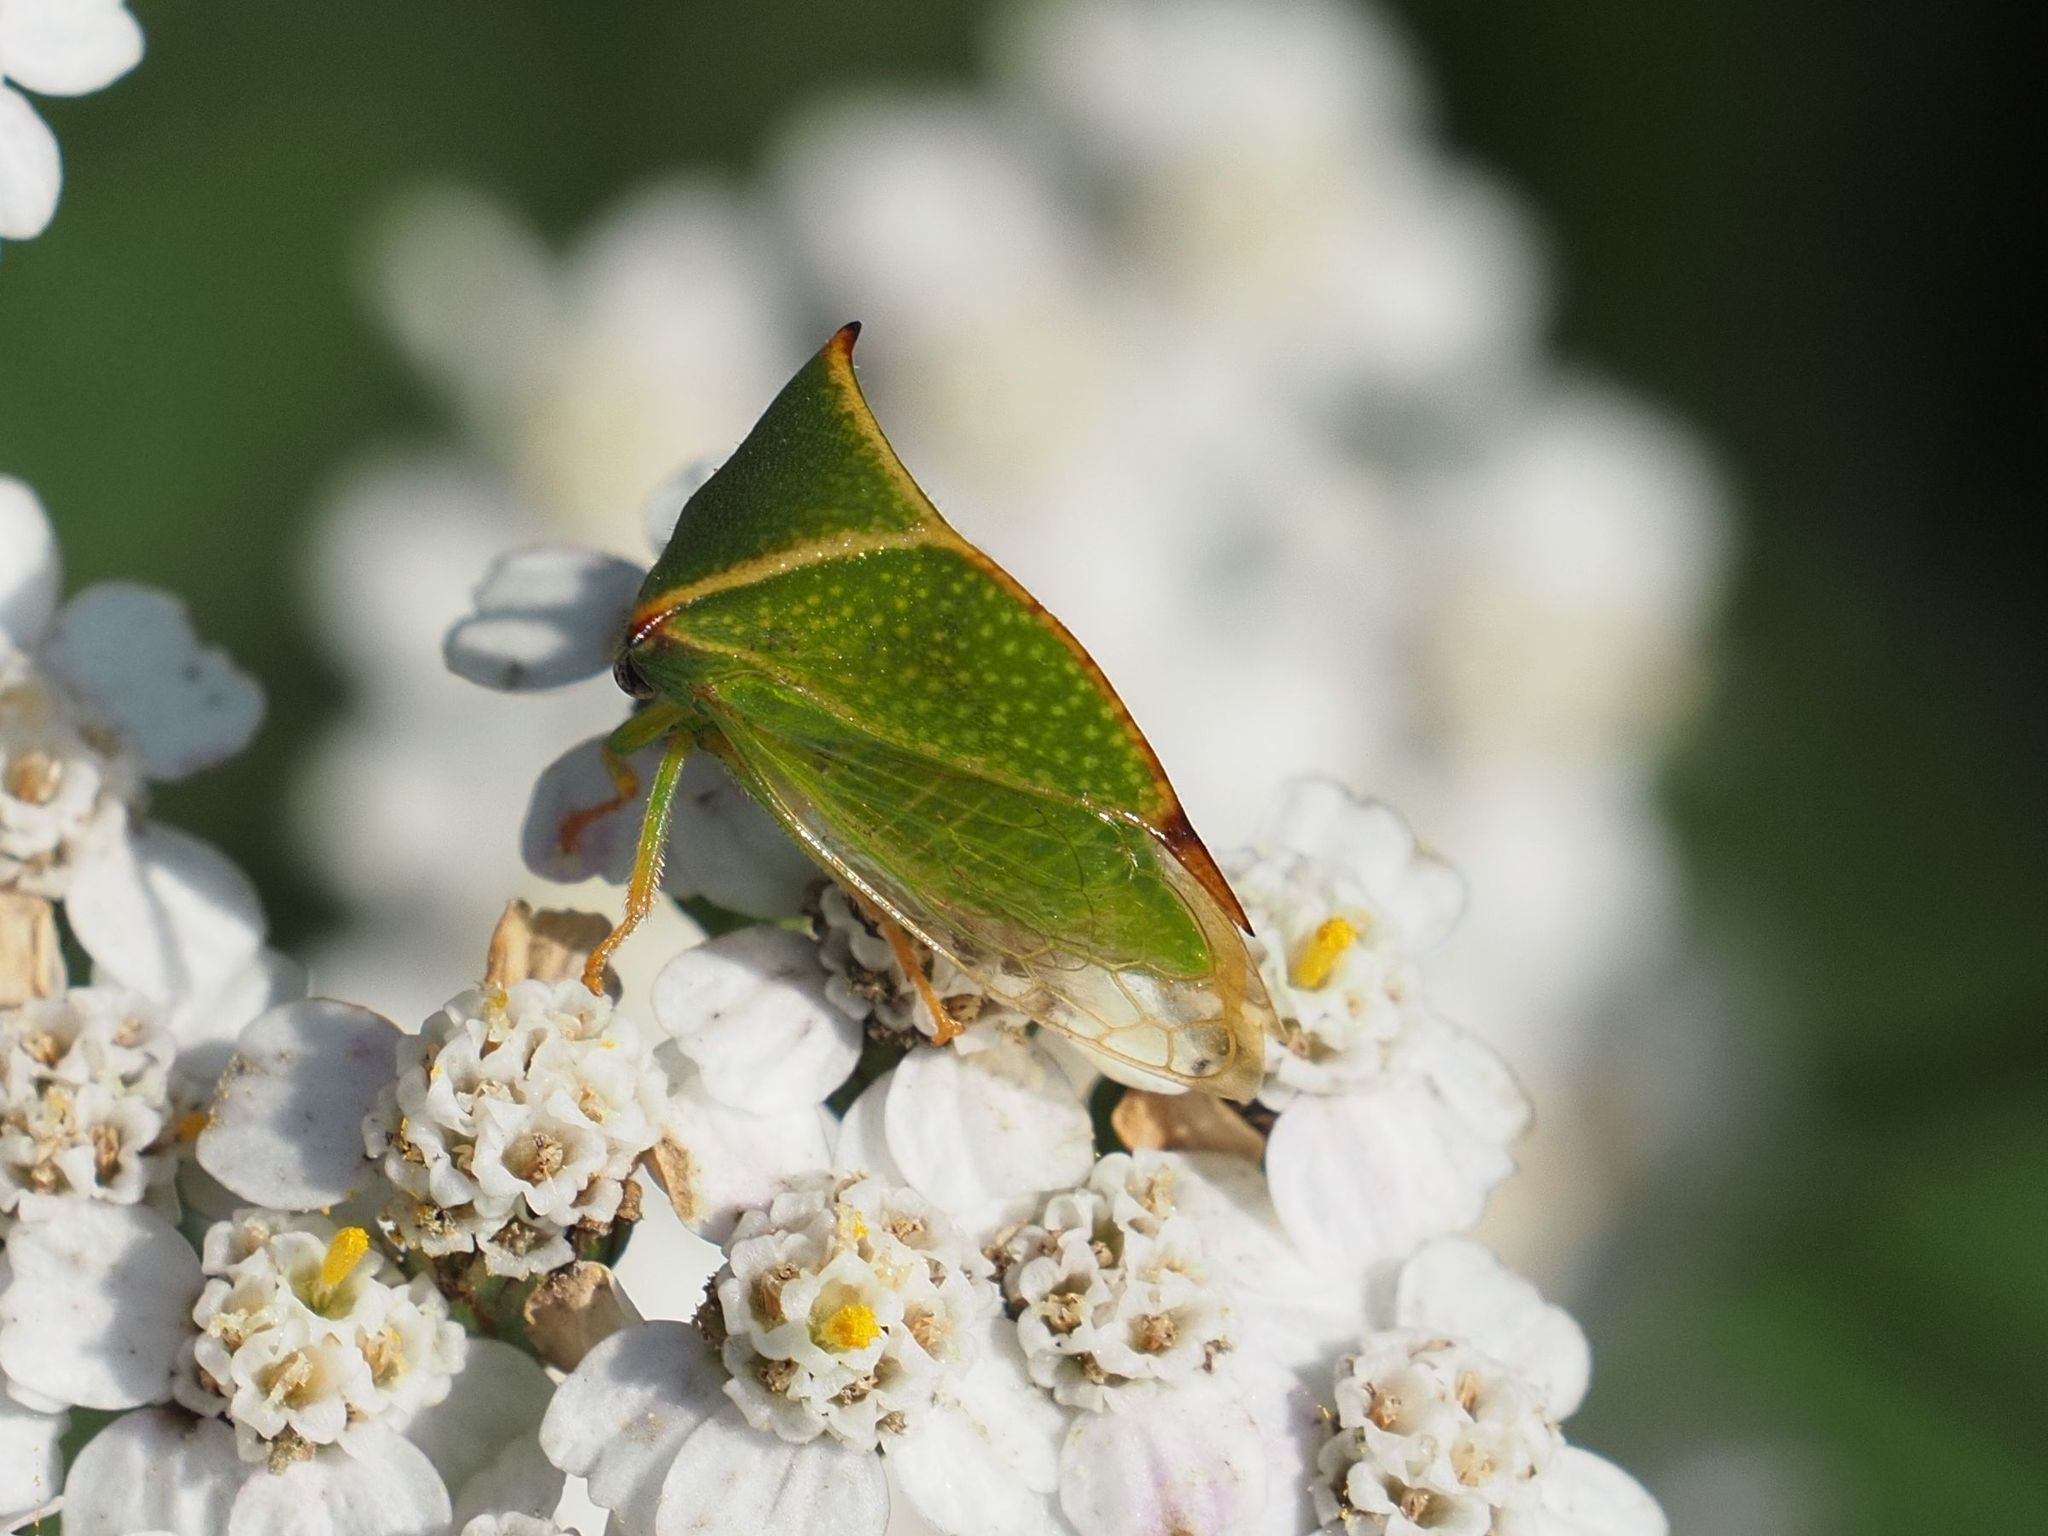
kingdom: Animalia
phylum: Arthropoda
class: Insecta
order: Hemiptera
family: Membracidae
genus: Stictocephala
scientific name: Stictocephala bisonia
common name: American buffalo treehopper
